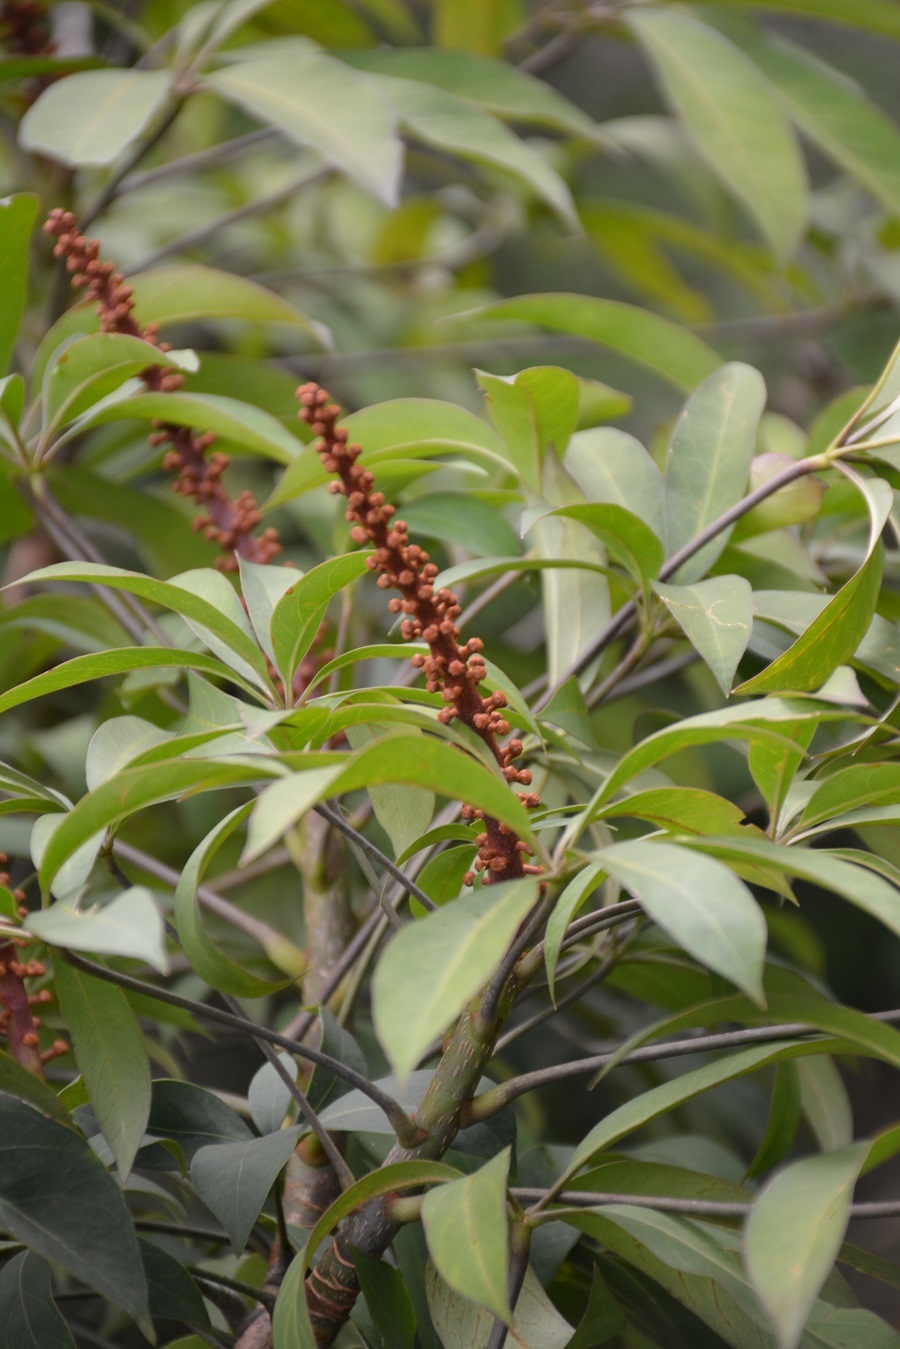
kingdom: Plantae
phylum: Tracheophyta
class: Magnoliopsida
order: Apiales
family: Araliaceae
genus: Oreopanax
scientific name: Oreopanax xalapensis
